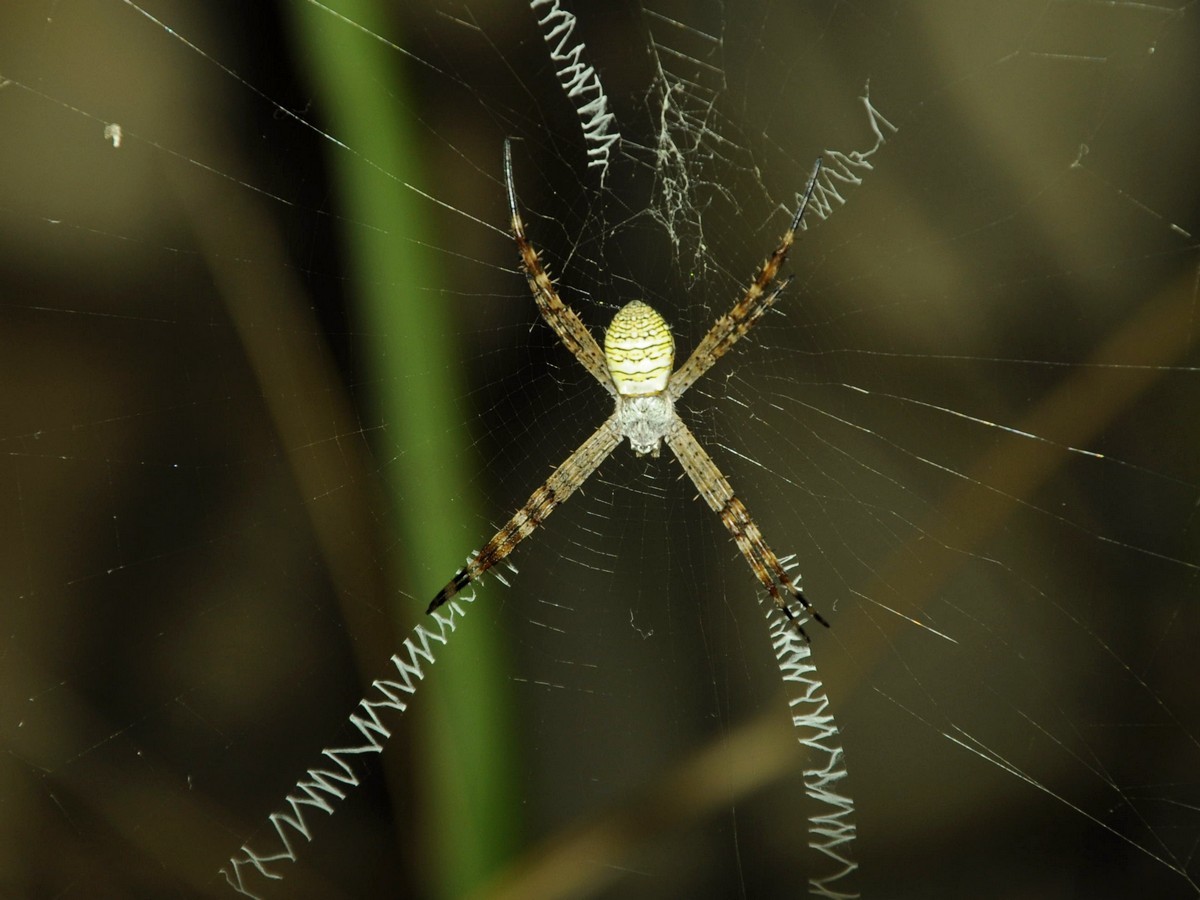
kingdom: Animalia
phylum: Arthropoda
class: Arachnida
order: Araneae
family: Araneidae
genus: Argiope
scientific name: Argiope aemula
